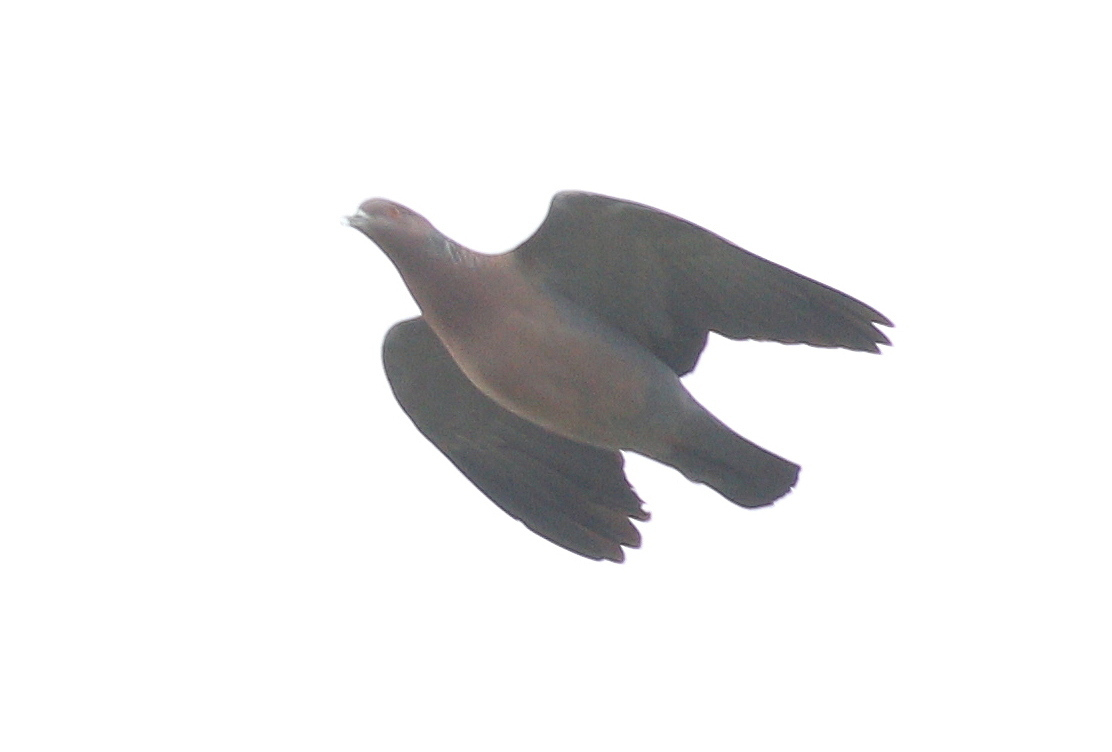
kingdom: Animalia
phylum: Chordata
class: Aves
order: Columbiformes
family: Columbidae
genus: Patagioenas
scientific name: Patagioenas picazuro
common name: Picazuro pigeon
